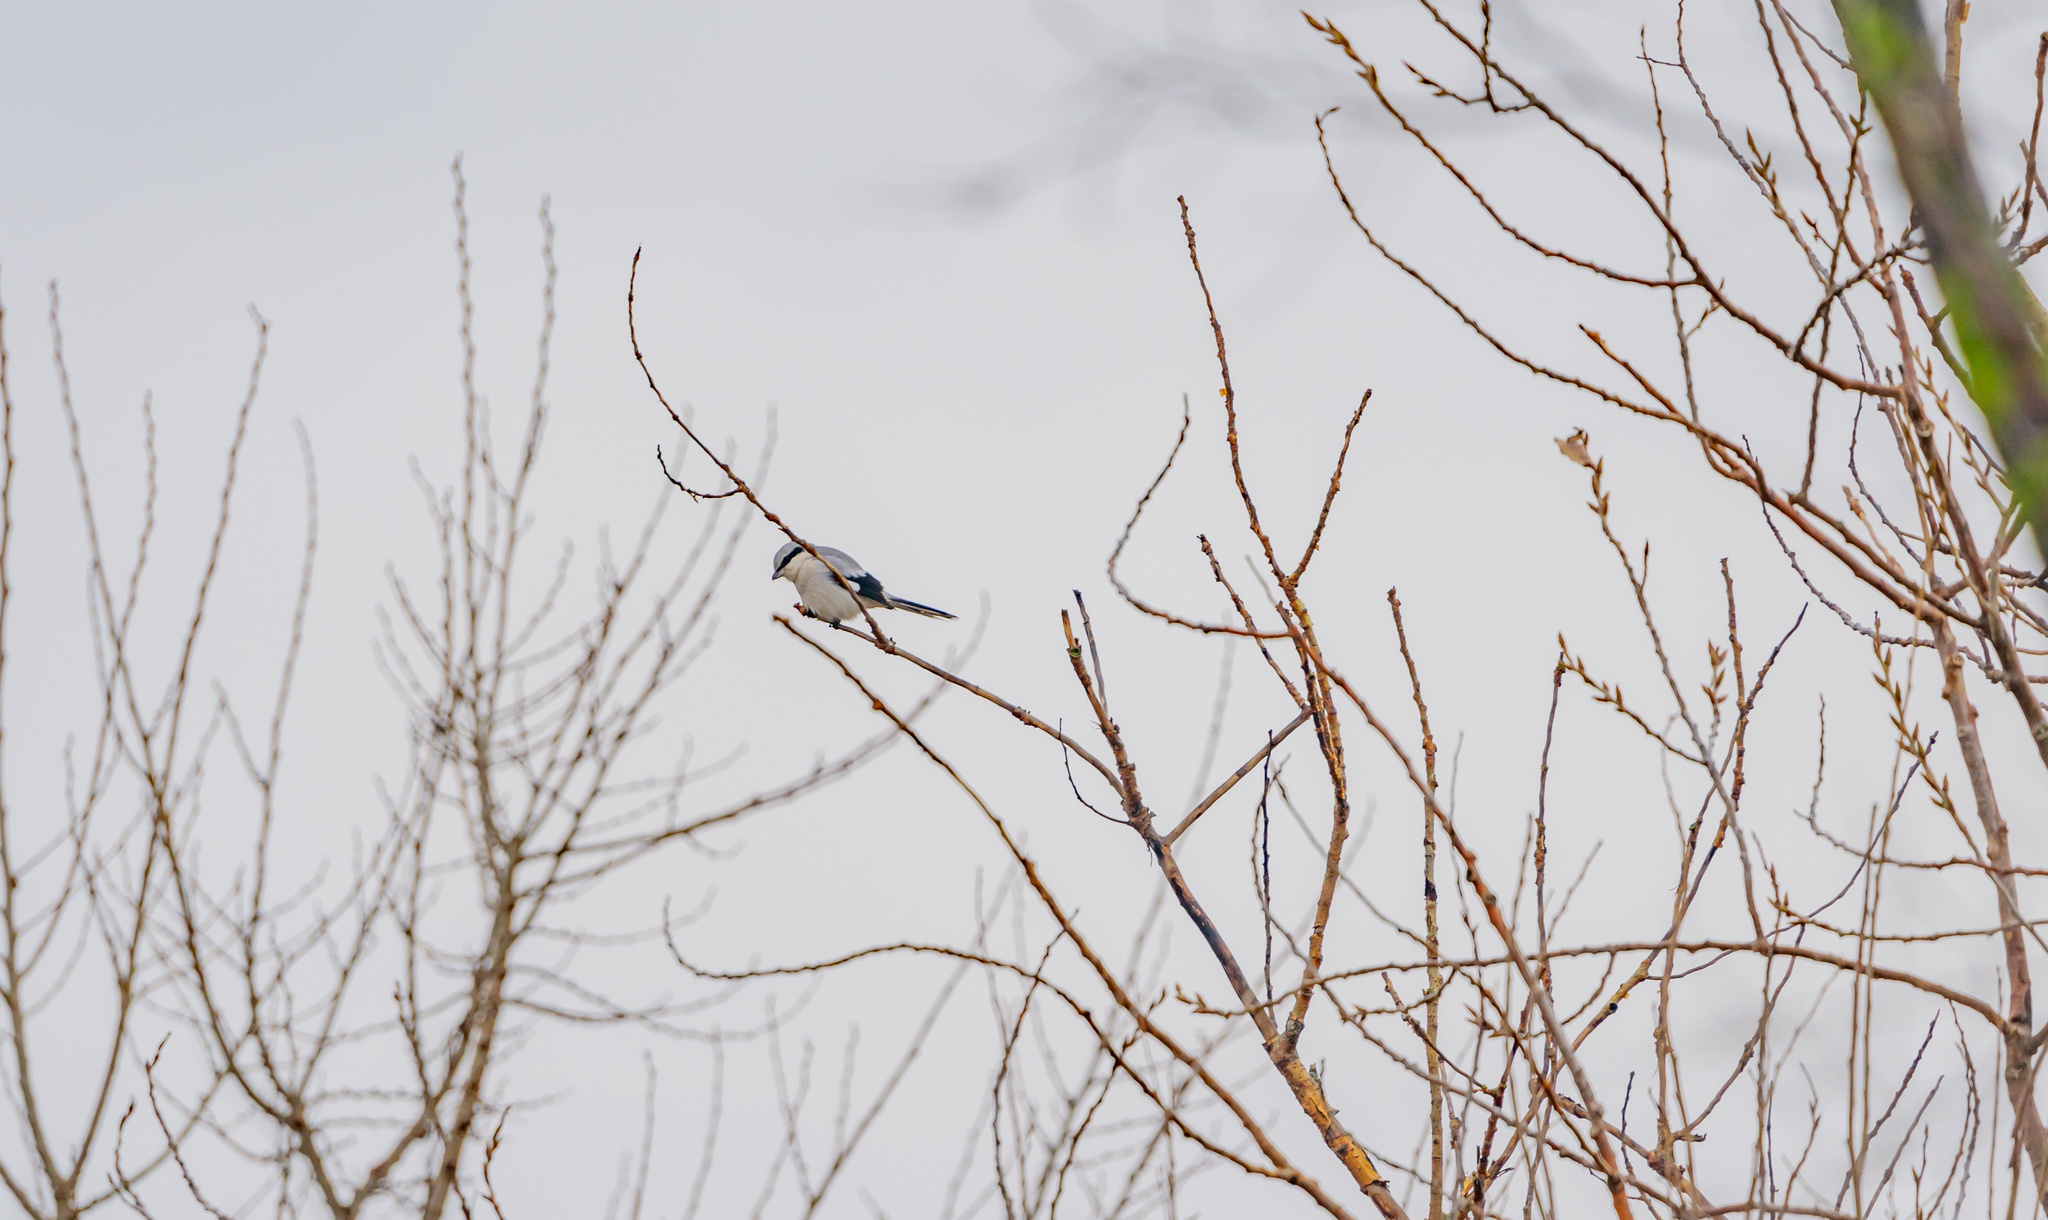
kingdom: Animalia
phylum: Chordata
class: Aves
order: Passeriformes
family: Laniidae
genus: Lanius
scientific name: Lanius excubitor
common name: Great grey shrike
